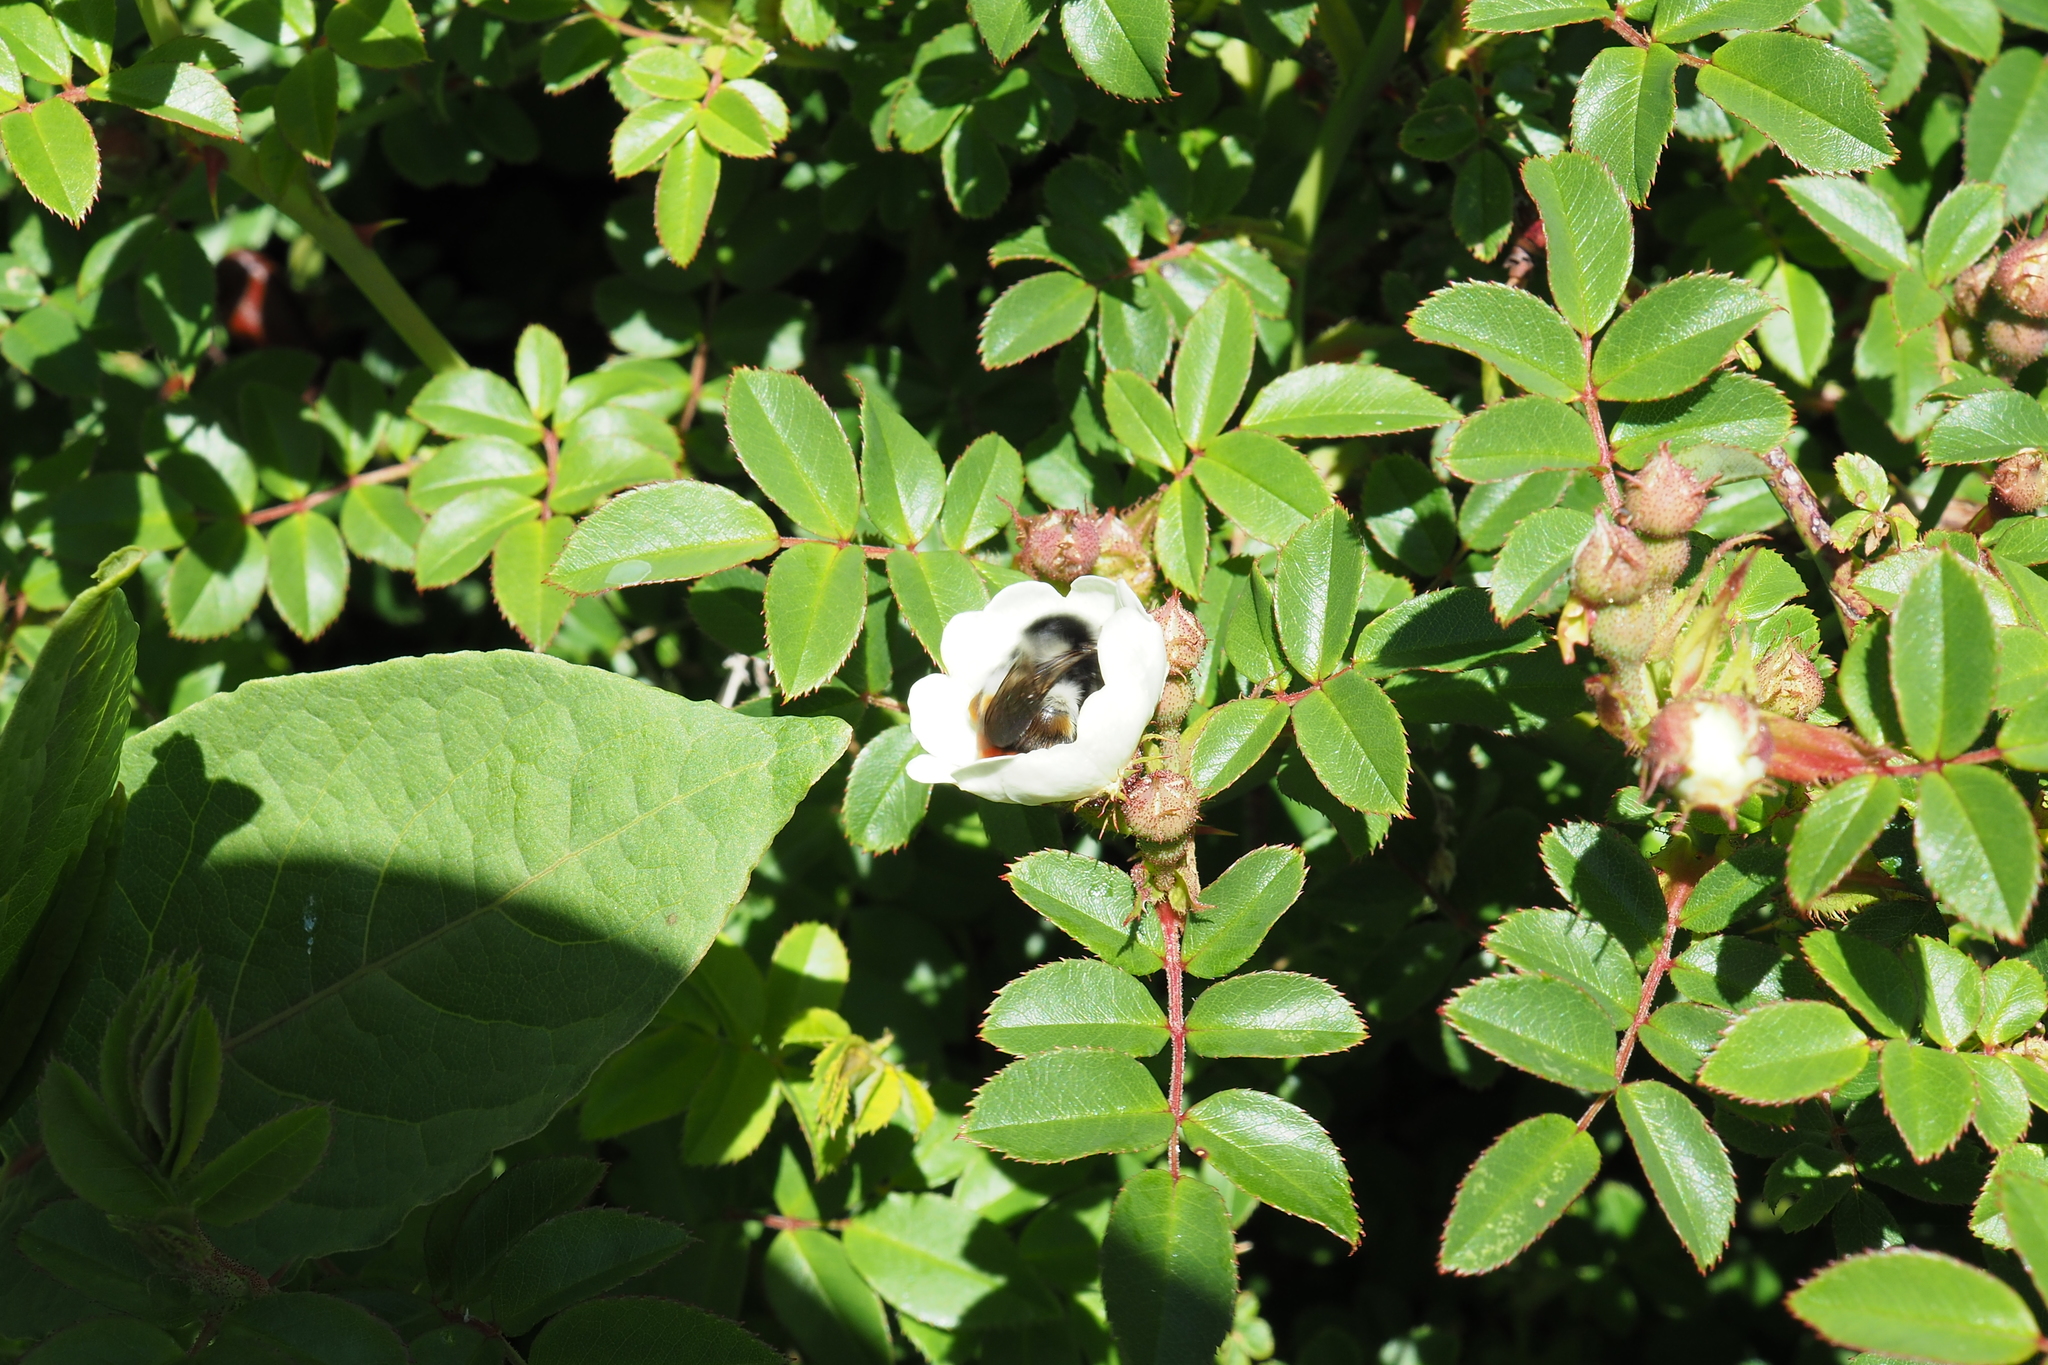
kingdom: Animalia
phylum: Arthropoda
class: Insecta
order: Hymenoptera
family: Apidae
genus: Bombus
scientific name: Bombus formosellus
